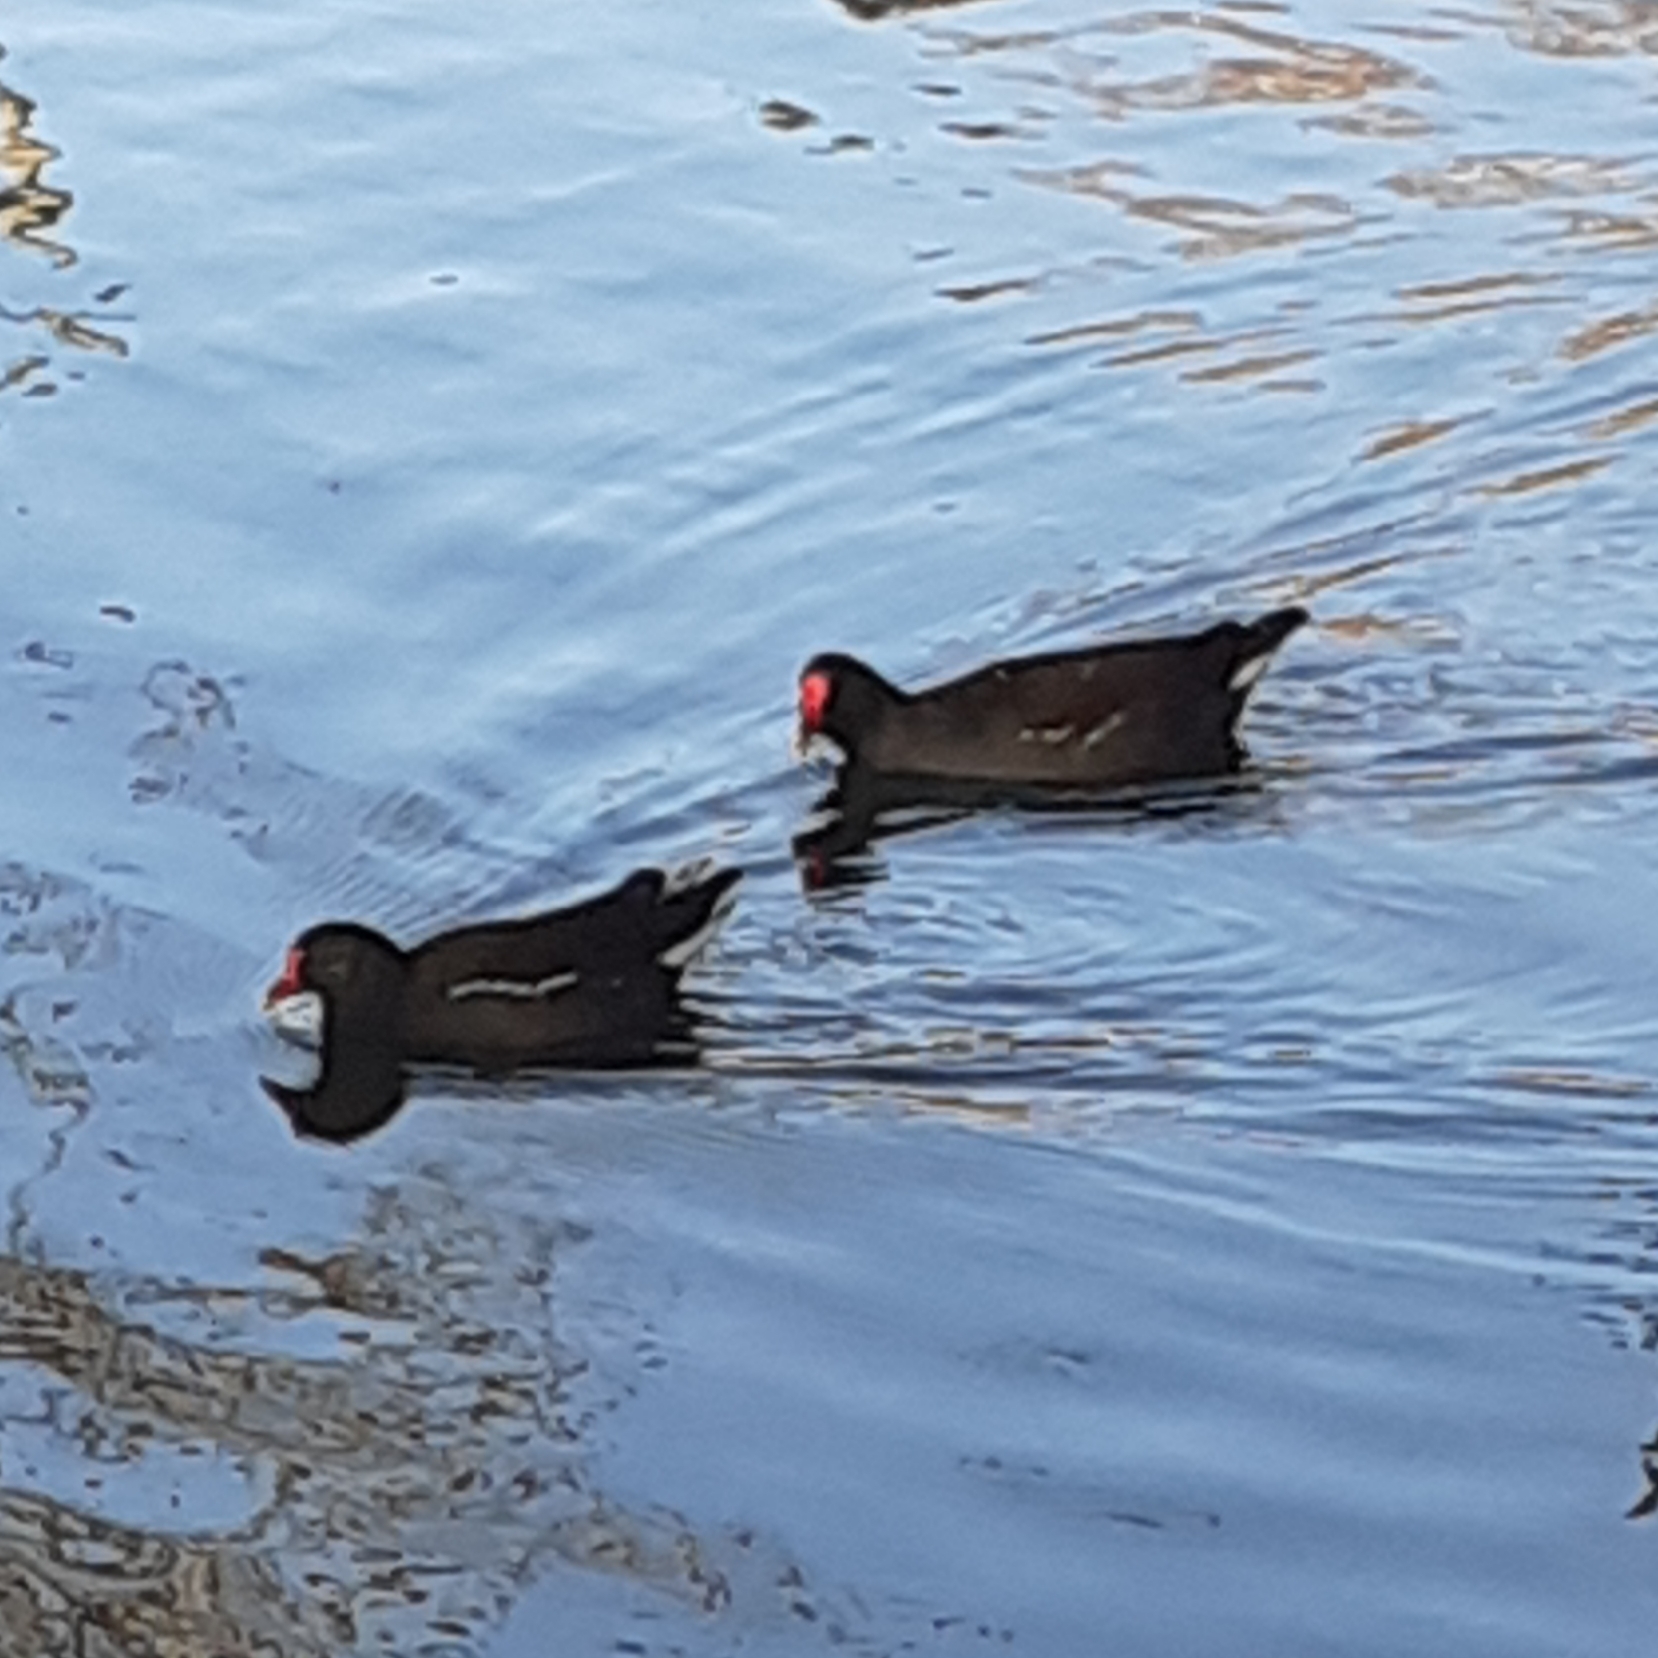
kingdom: Animalia
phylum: Chordata
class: Aves
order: Gruiformes
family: Rallidae
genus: Gallinula
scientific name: Gallinula chloropus
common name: Common moorhen
